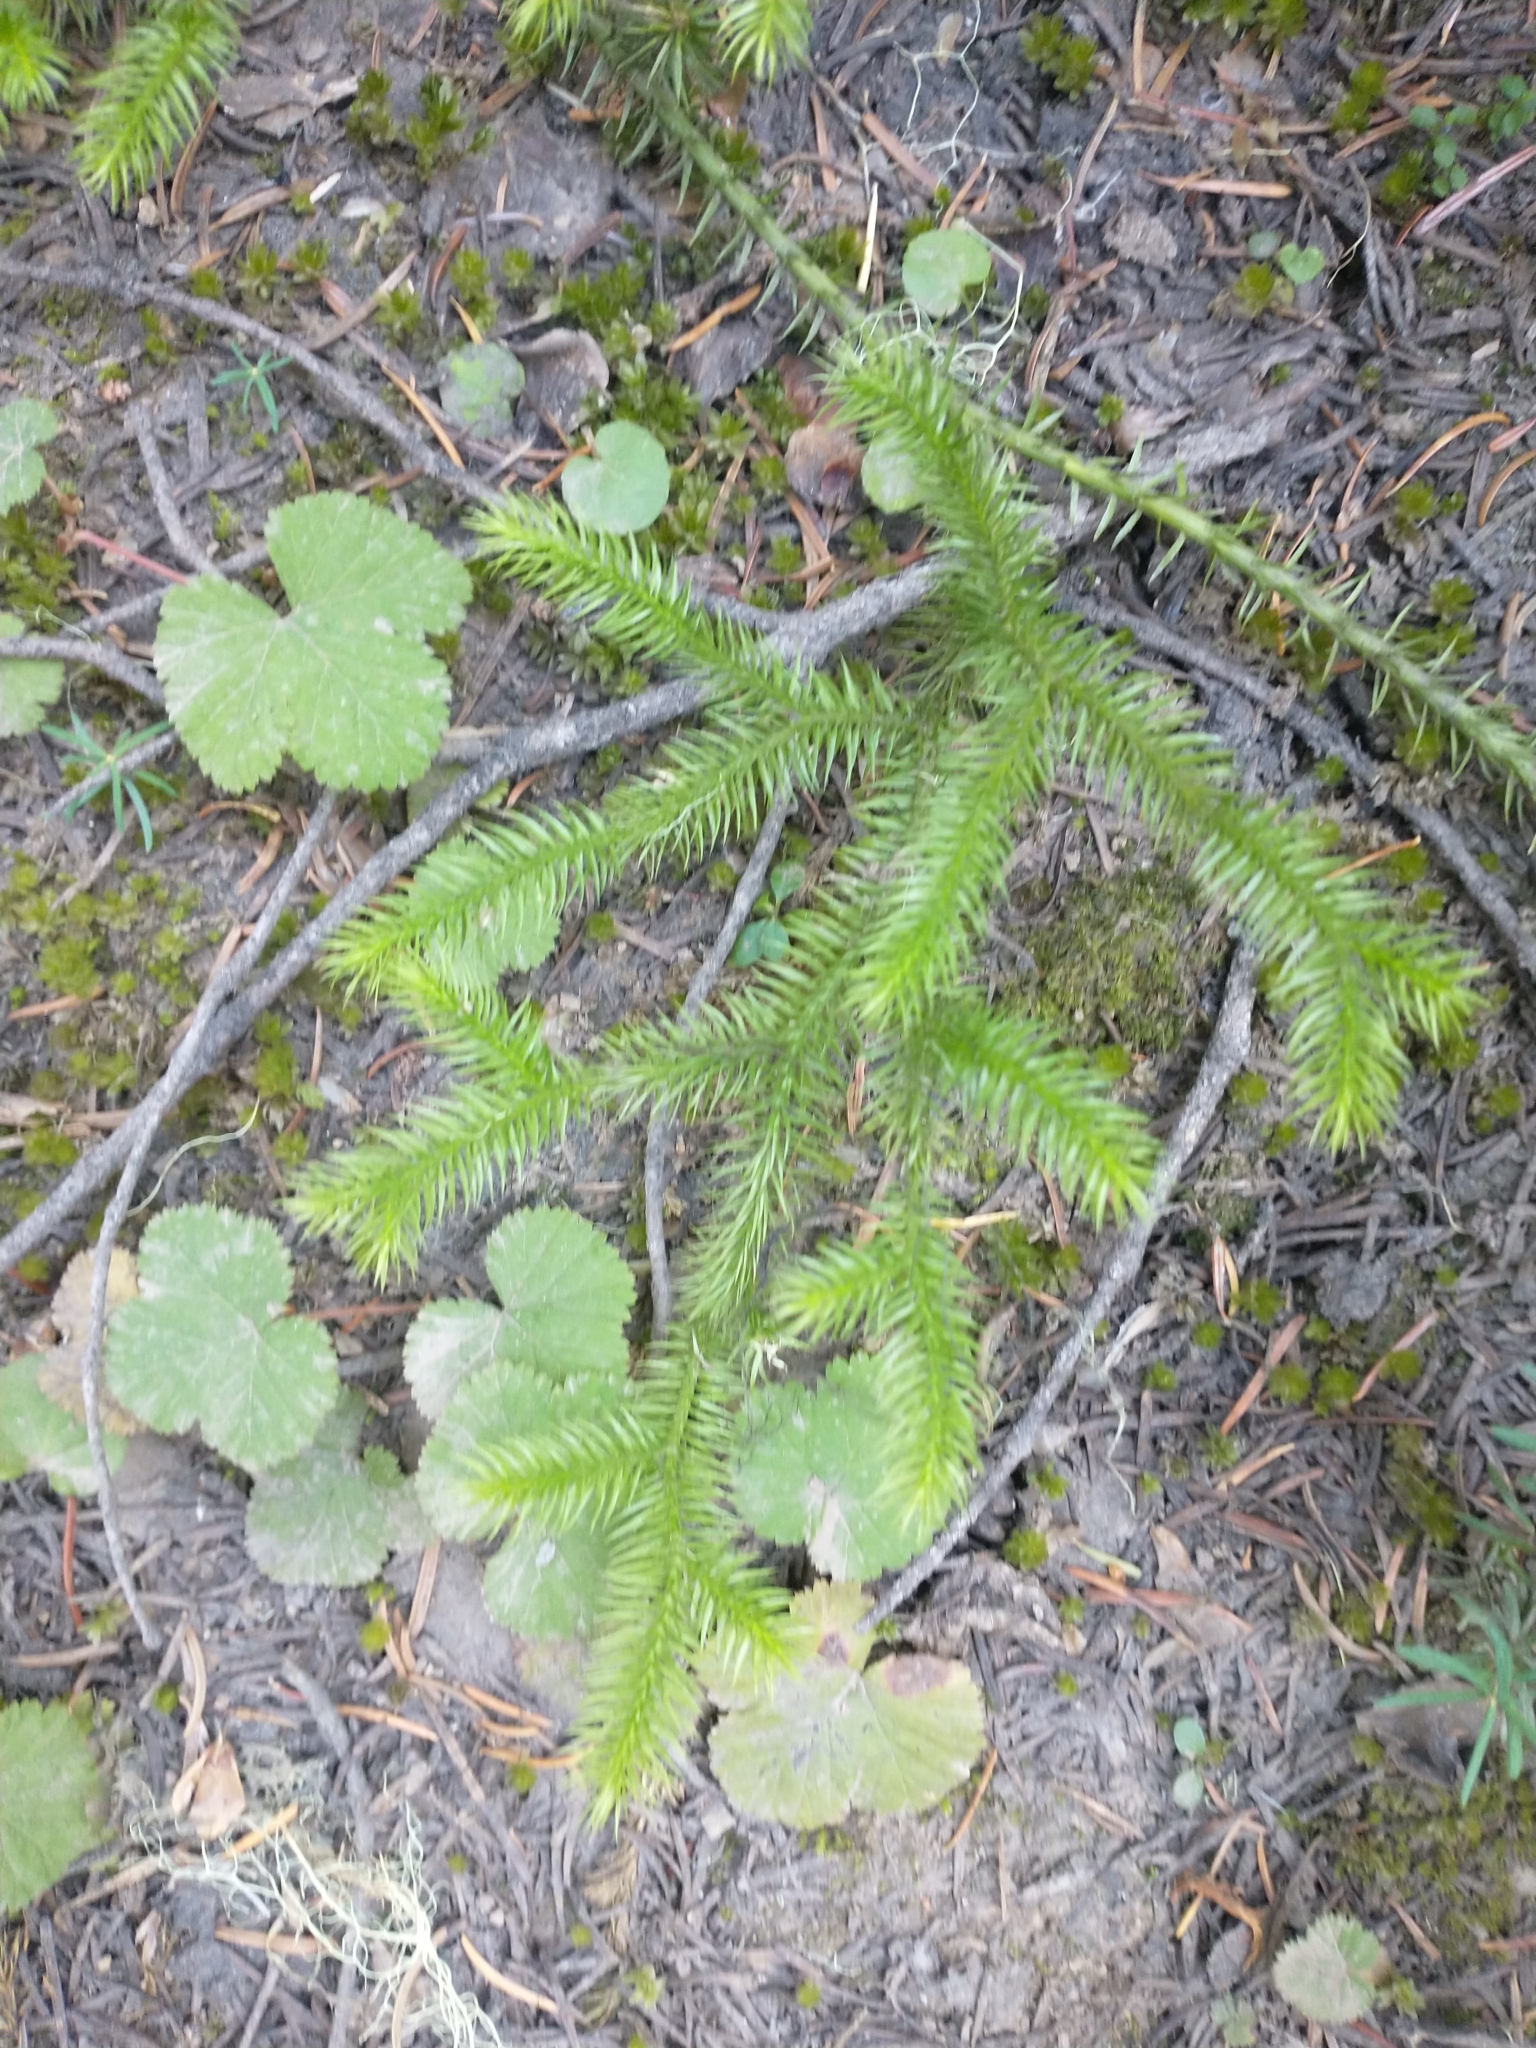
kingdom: Plantae
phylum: Tracheophyta
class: Lycopodiopsida
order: Lycopodiales
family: Lycopodiaceae
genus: Lycopodium
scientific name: Lycopodium clavatum
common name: Stag's-horn clubmoss
